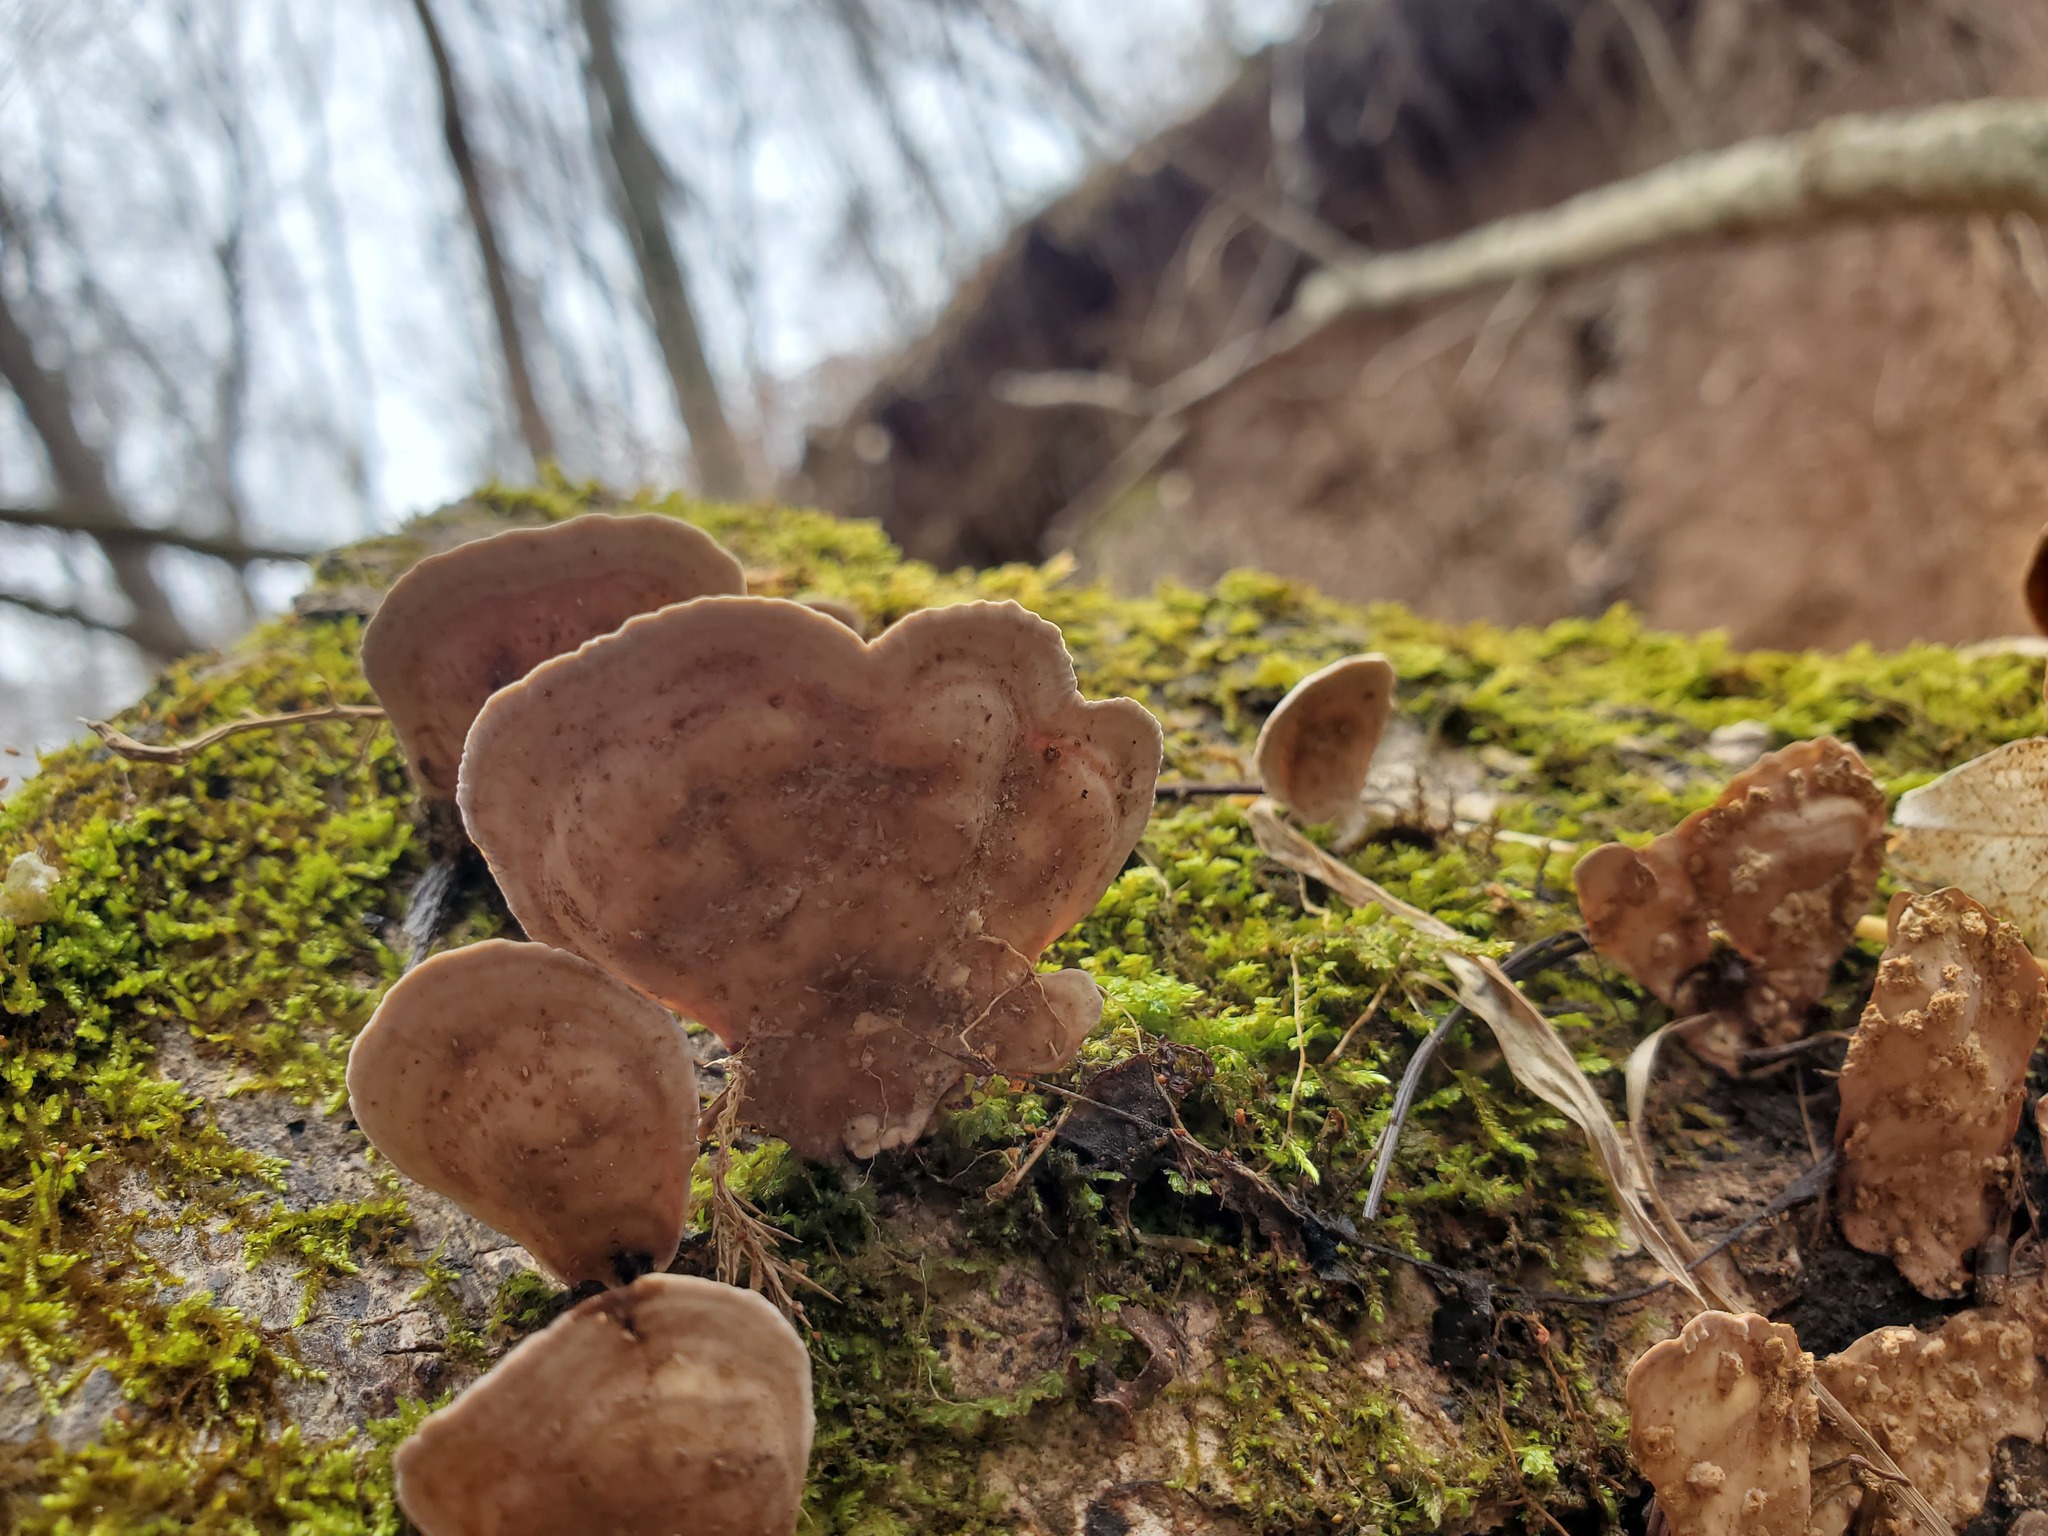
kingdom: Fungi
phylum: Basidiomycota
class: Agaricomycetes
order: Russulales
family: Stereaceae
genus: Stereum
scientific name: Stereum lobatum
